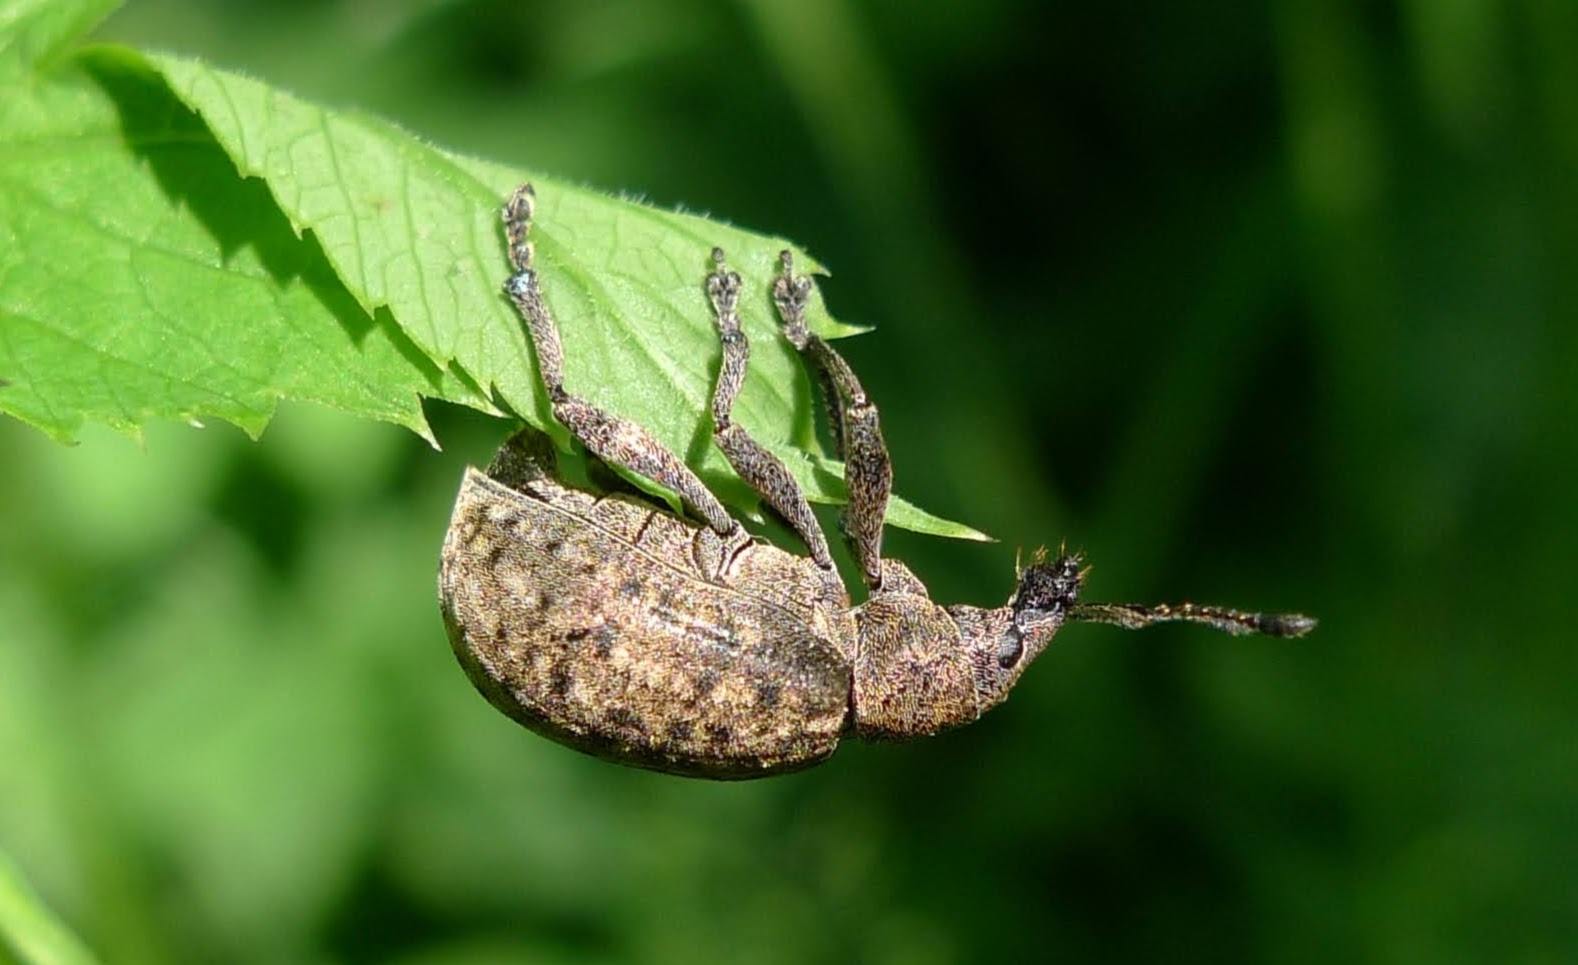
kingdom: Animalia
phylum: Arthropoda
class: Insecta
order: Coleoptera
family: Curculionidae
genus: Liophloeus
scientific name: Liophloeus tessulatus
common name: Weevil
